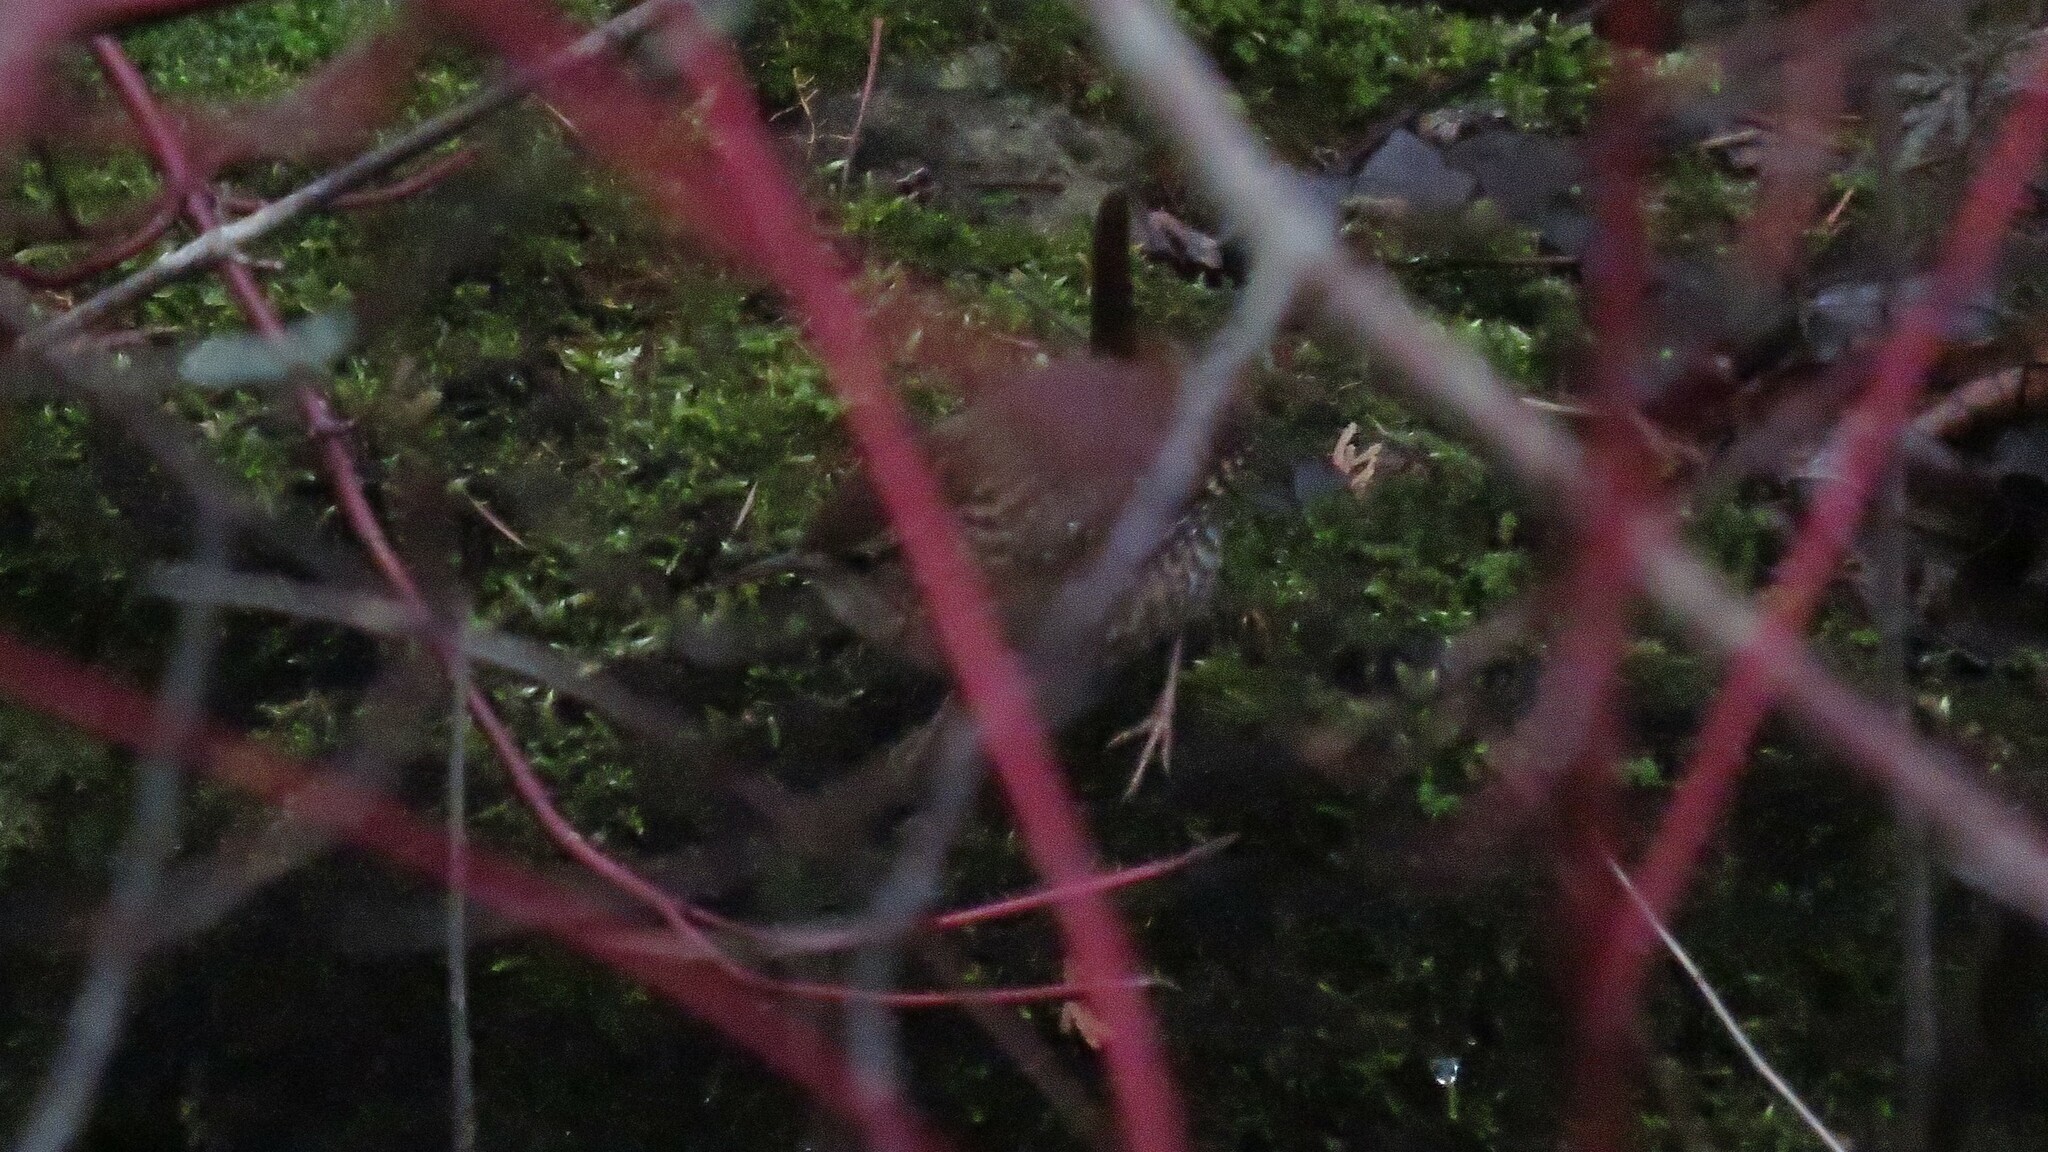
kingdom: Animalia
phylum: Chordata
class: Aves
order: Passeriformes
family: Troglodytidae
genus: Troglodytes
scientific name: Troglodytes hiemalis
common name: Winter wren
